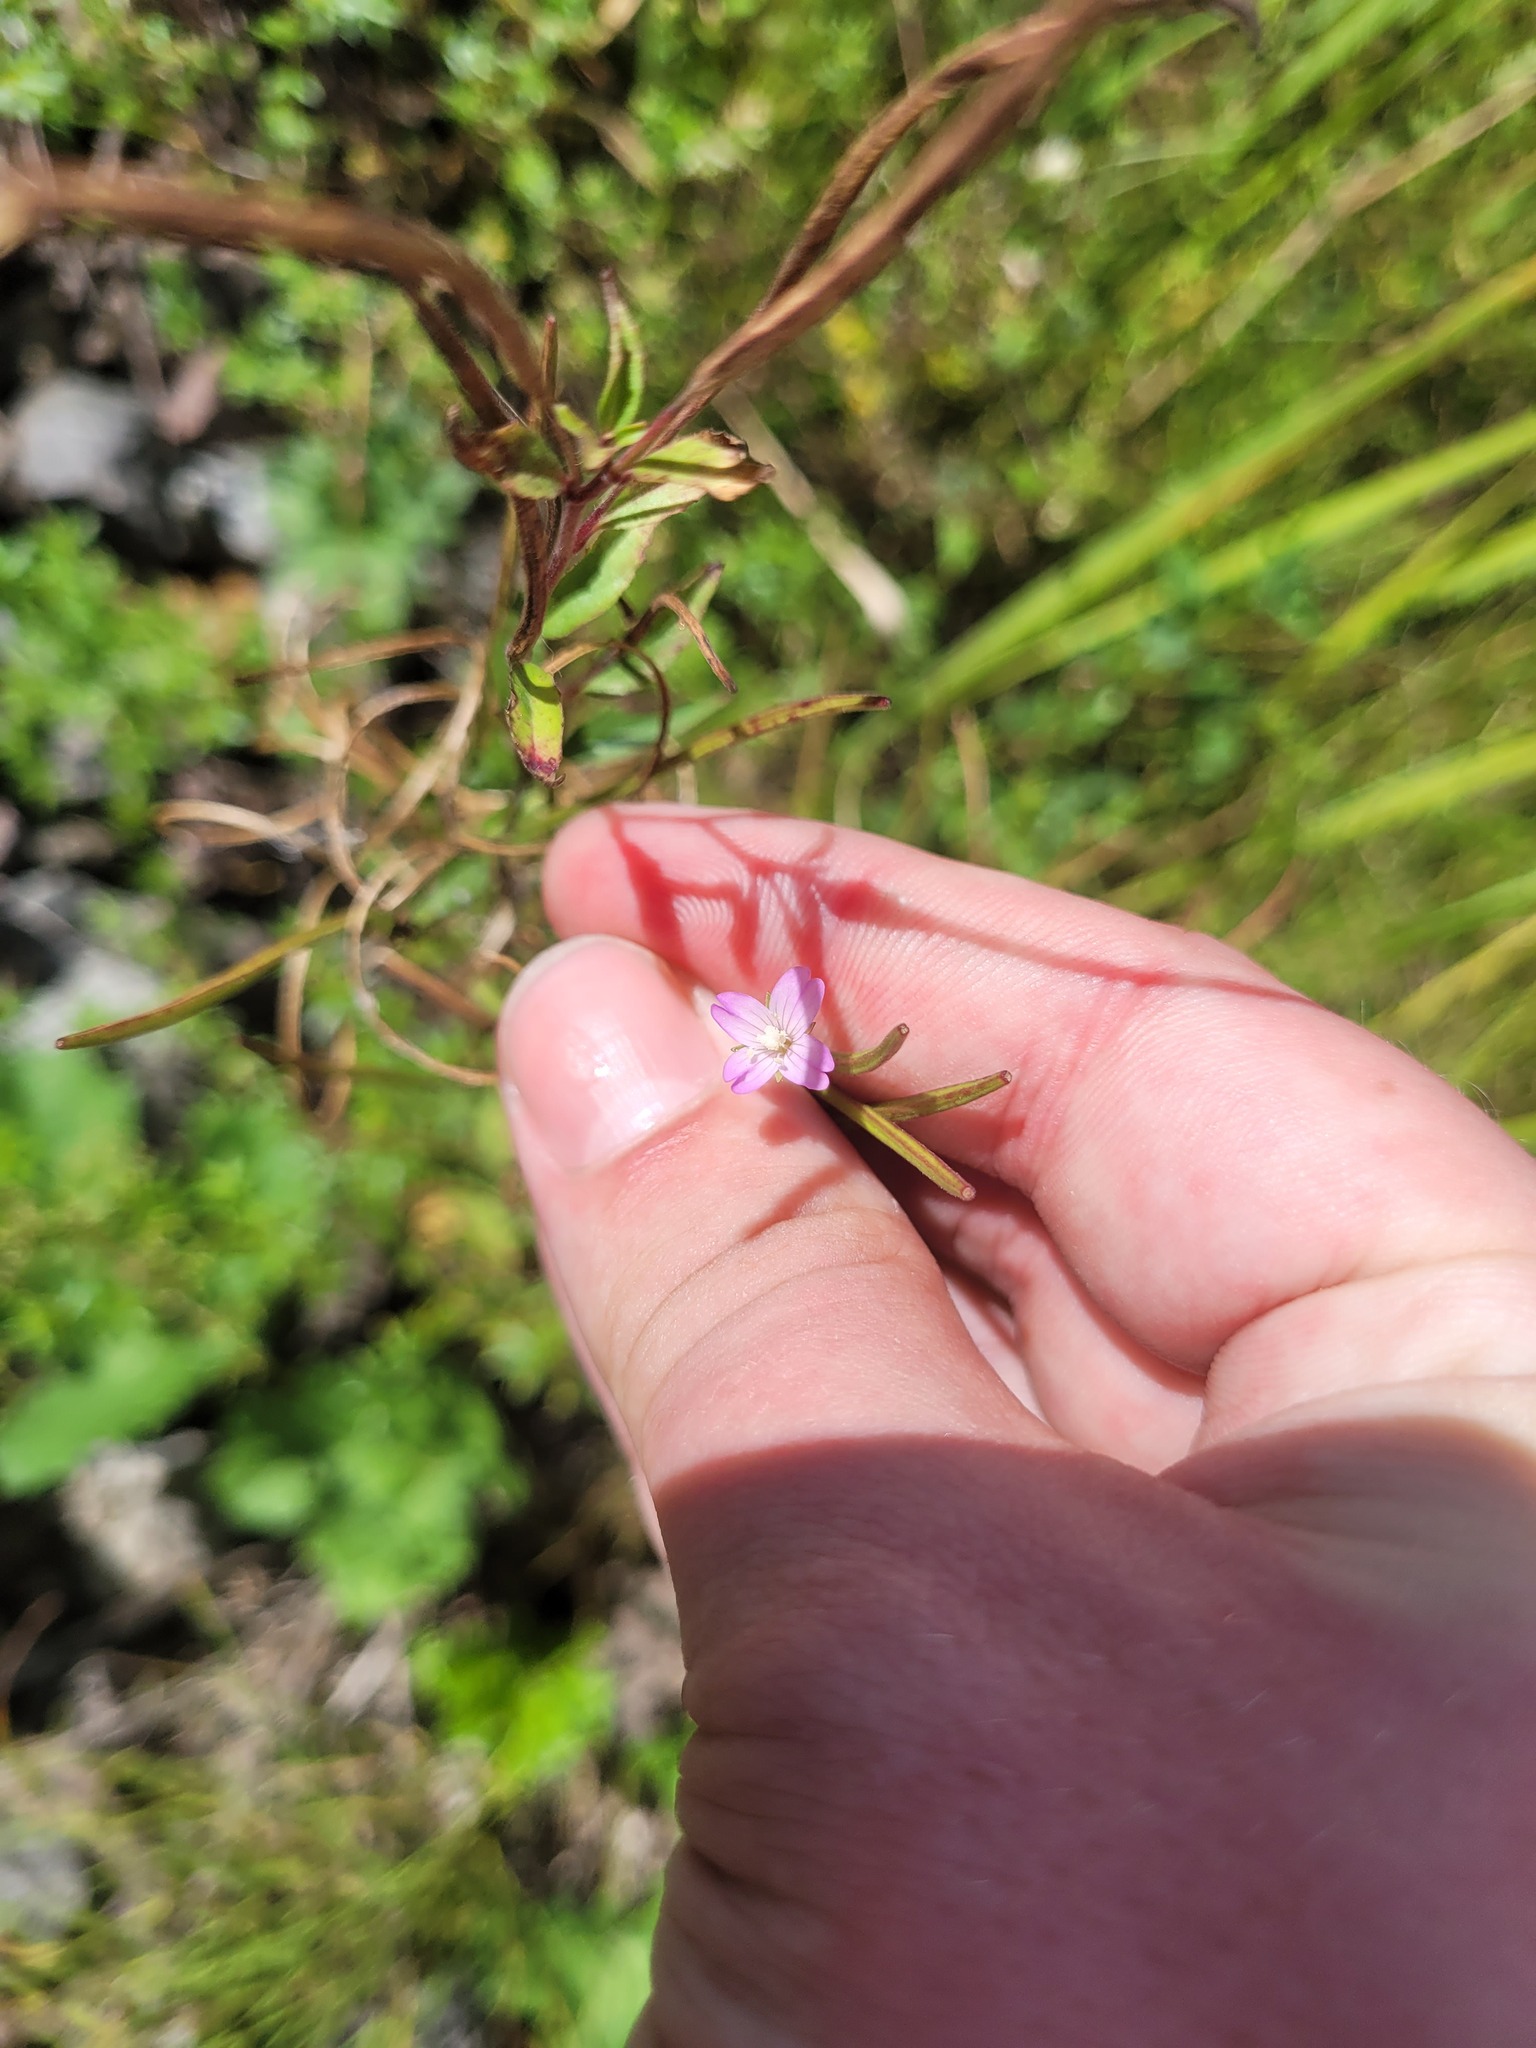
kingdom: Plantae
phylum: Tracheophyta
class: Magnoliopsida
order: Myrtales
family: Onagraceae
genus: Epilobium
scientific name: Epilobium montanum
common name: Broad-leaved willowherb
